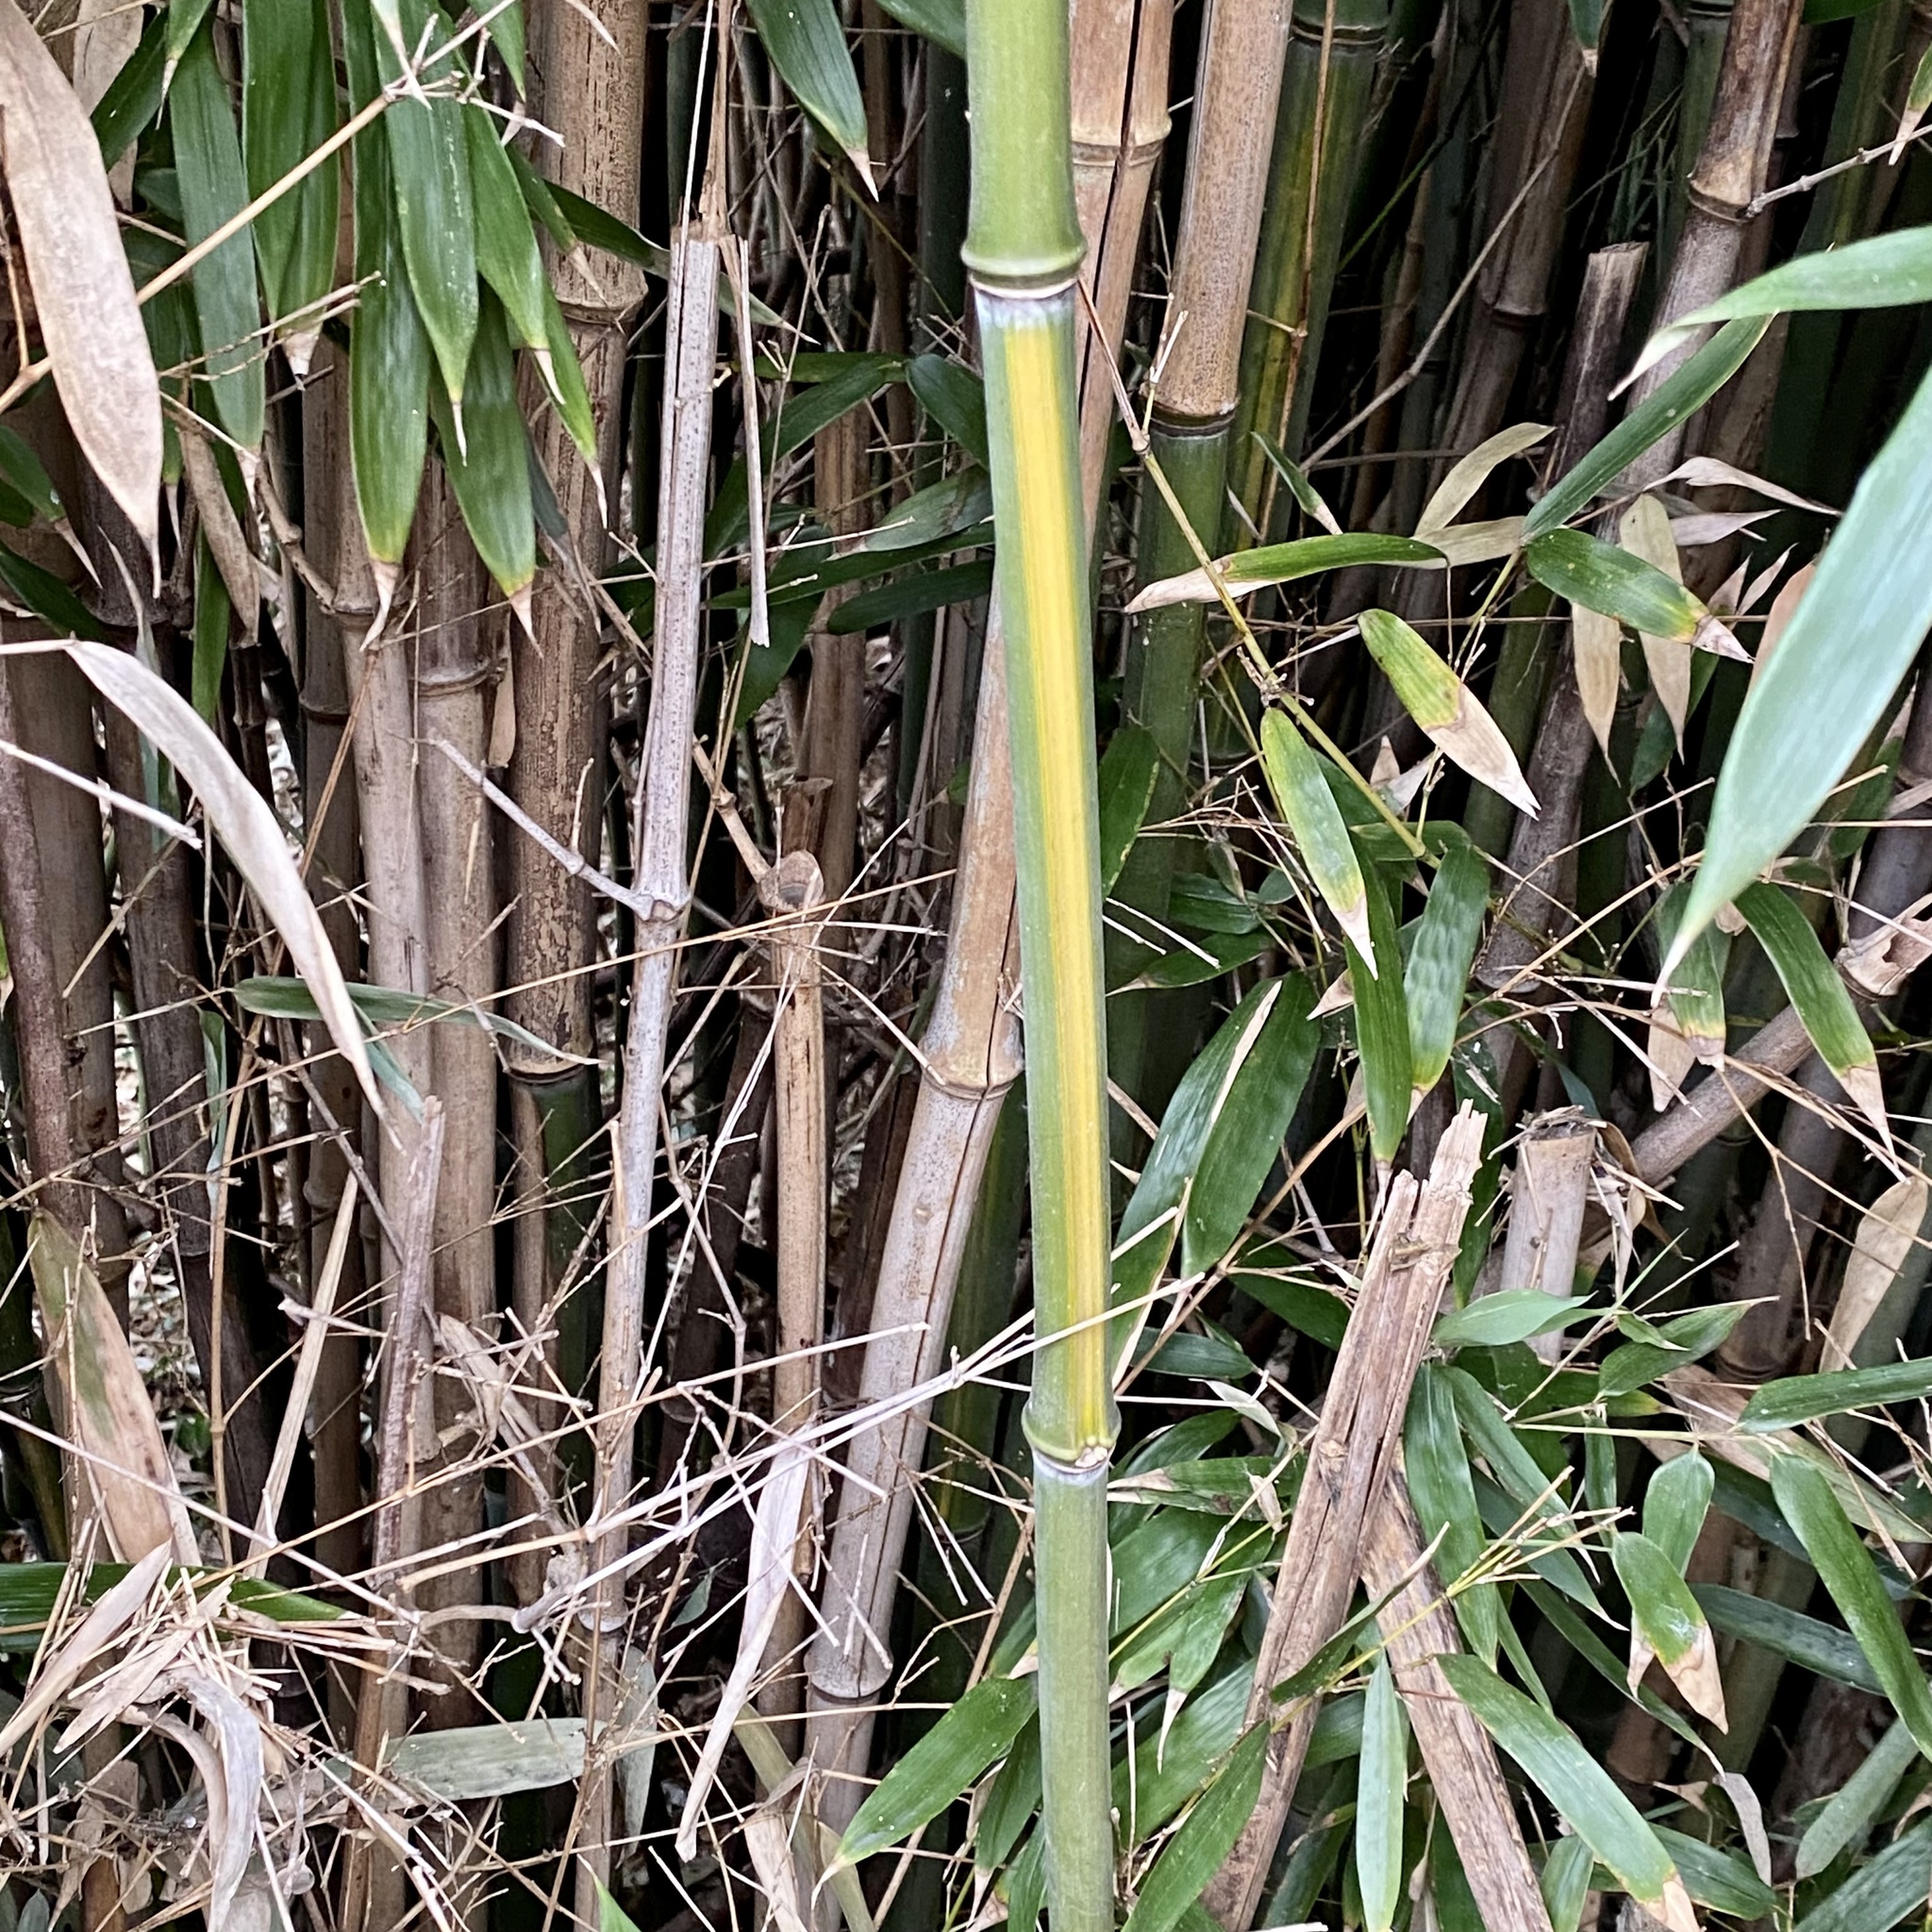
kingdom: Plantae
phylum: Tracheophyta
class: Liliopsida
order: Poales
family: Poaceae
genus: Phyllostachys
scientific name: Phyllostachys aureosulcata
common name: Yellow groove bamboo
